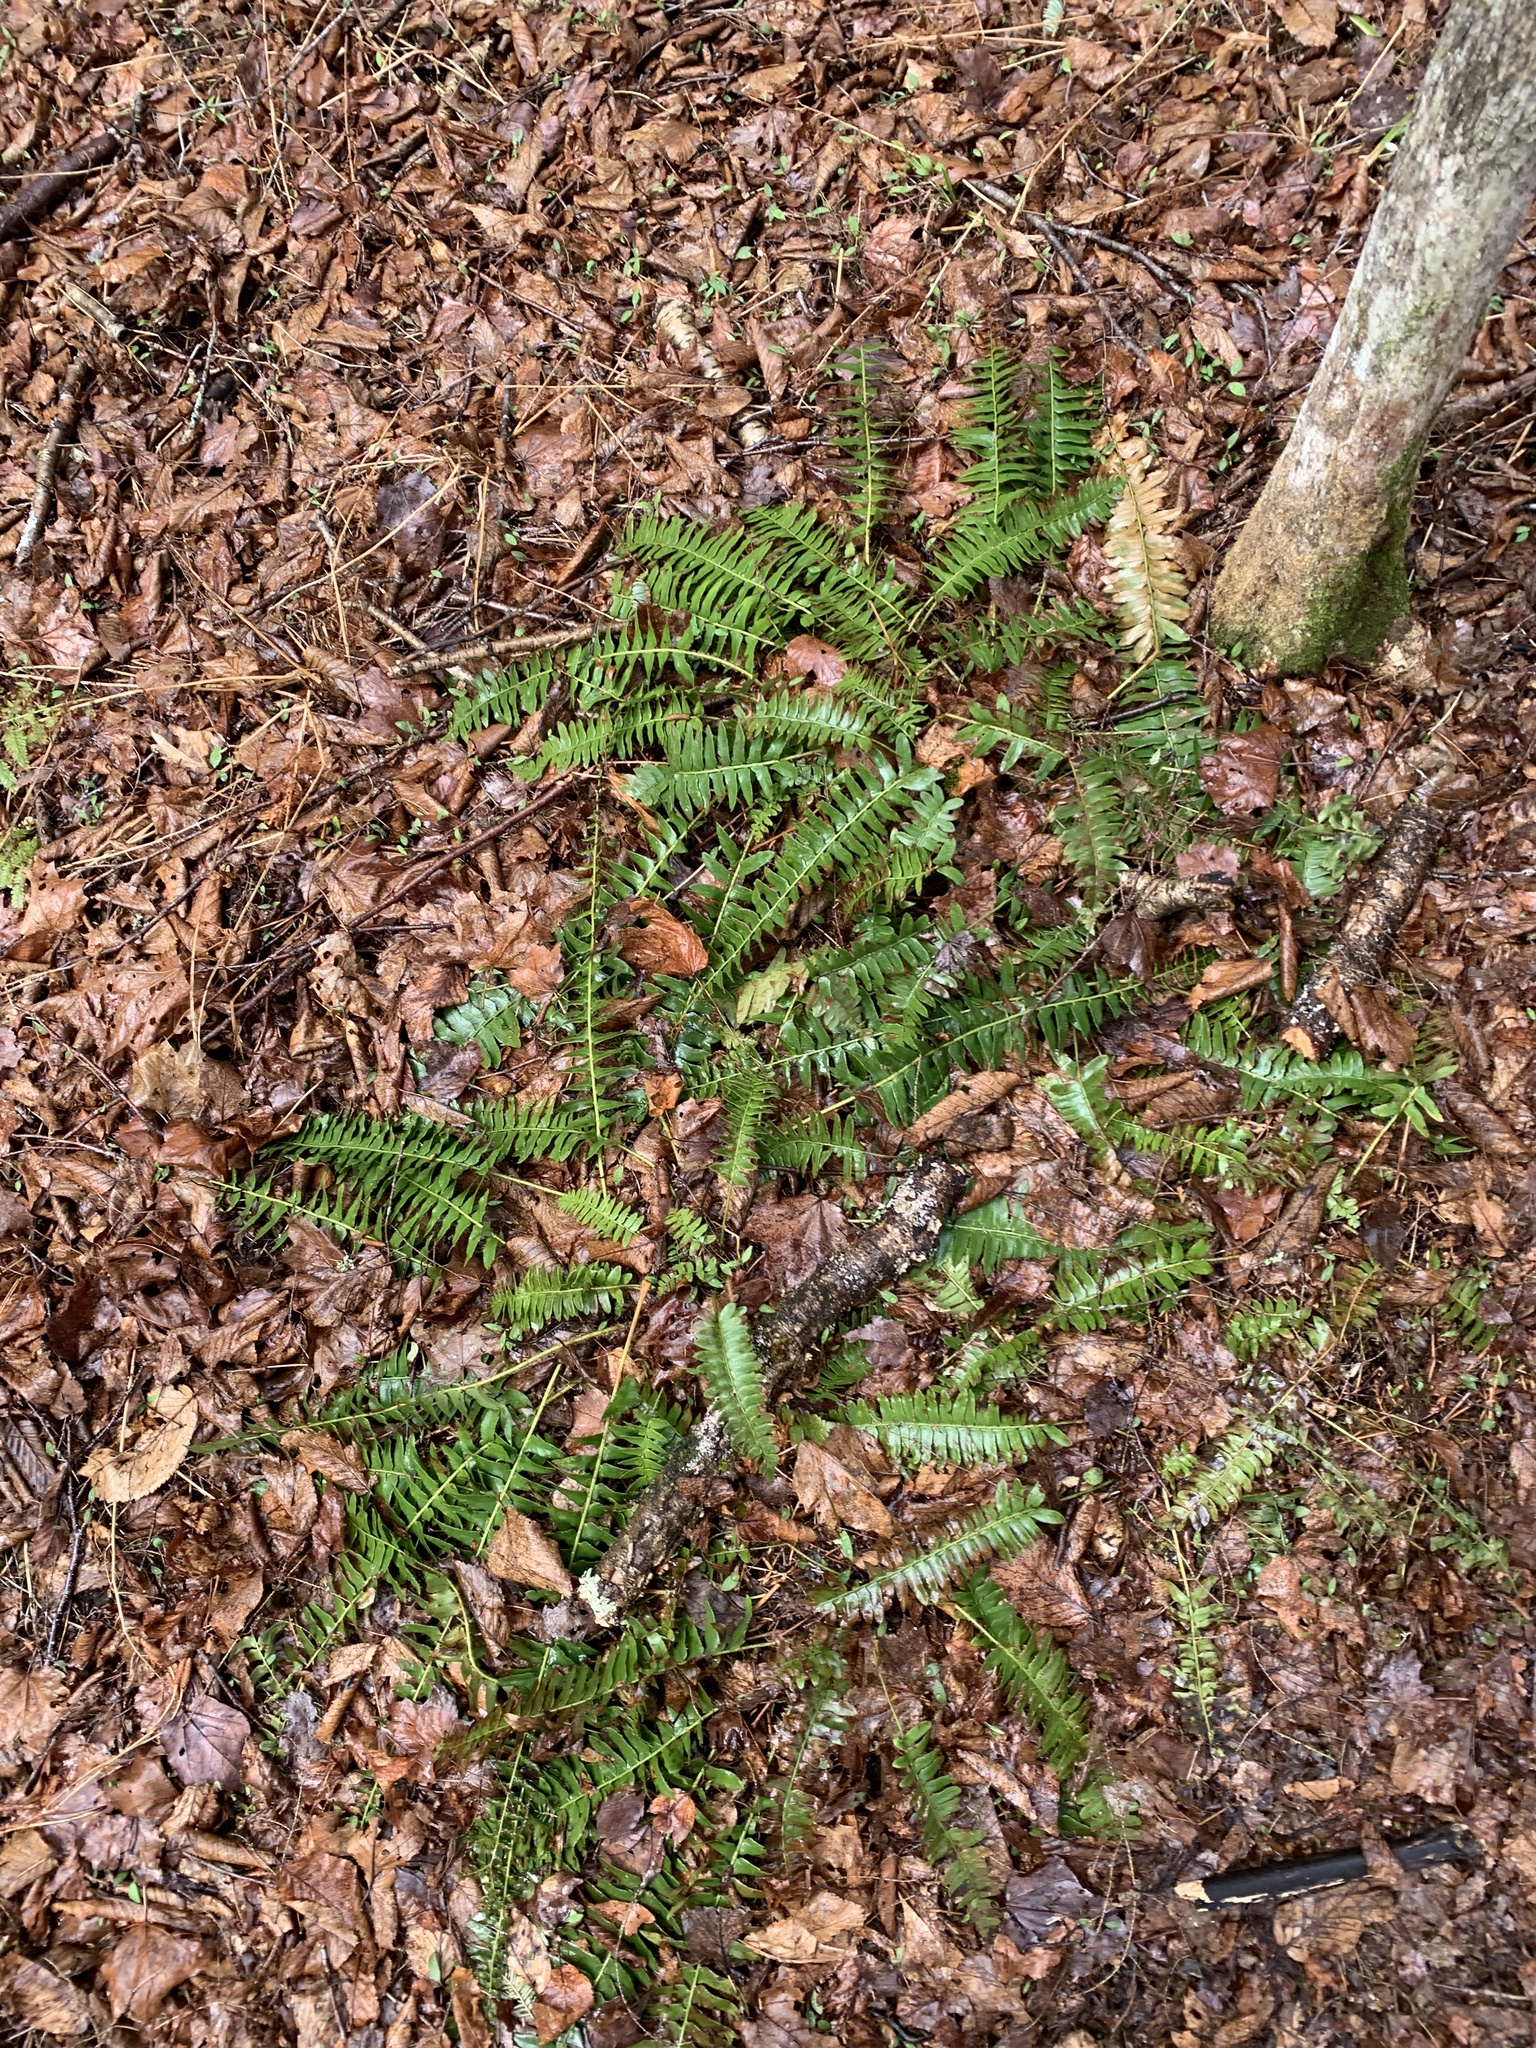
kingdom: Plantae
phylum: Tracheophyta
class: Polypodiopsida
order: Polypodiales
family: Dryopteridaceae
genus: Polystichum
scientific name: Polystichum acrostichoides
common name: Christmas fern
